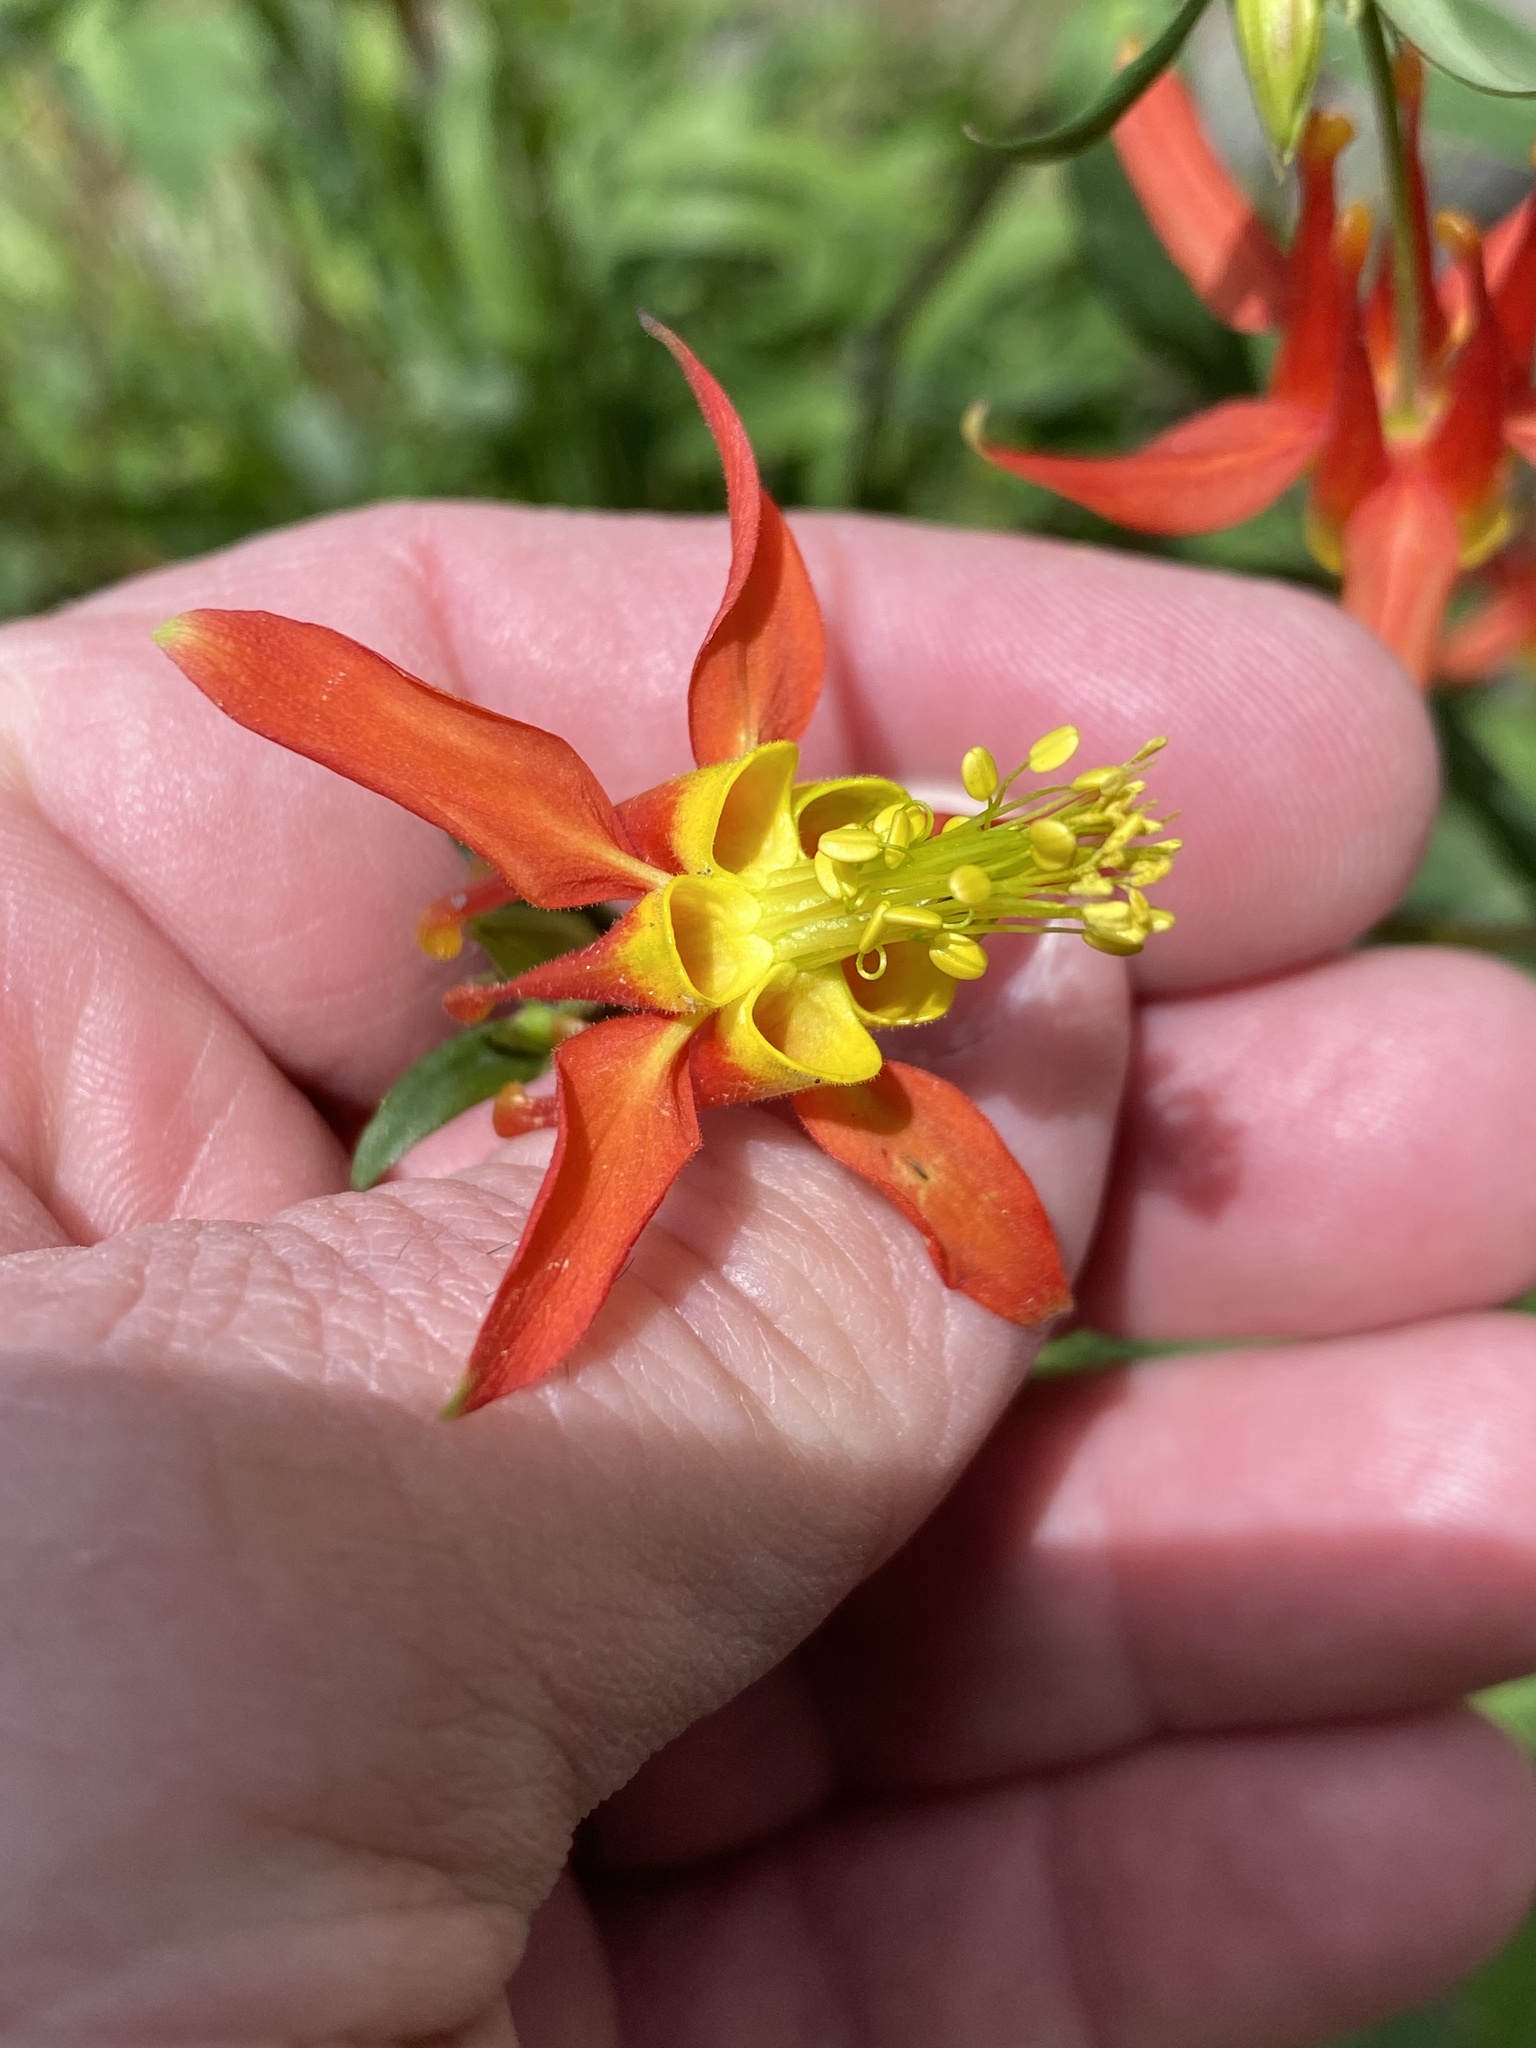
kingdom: Plantae
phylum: Tracheophyta
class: Magnoliopsida
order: Ranunculales
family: Ranunculaceae
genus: Aquilegia
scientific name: Aquilegia formosa
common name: Sitka columbine
